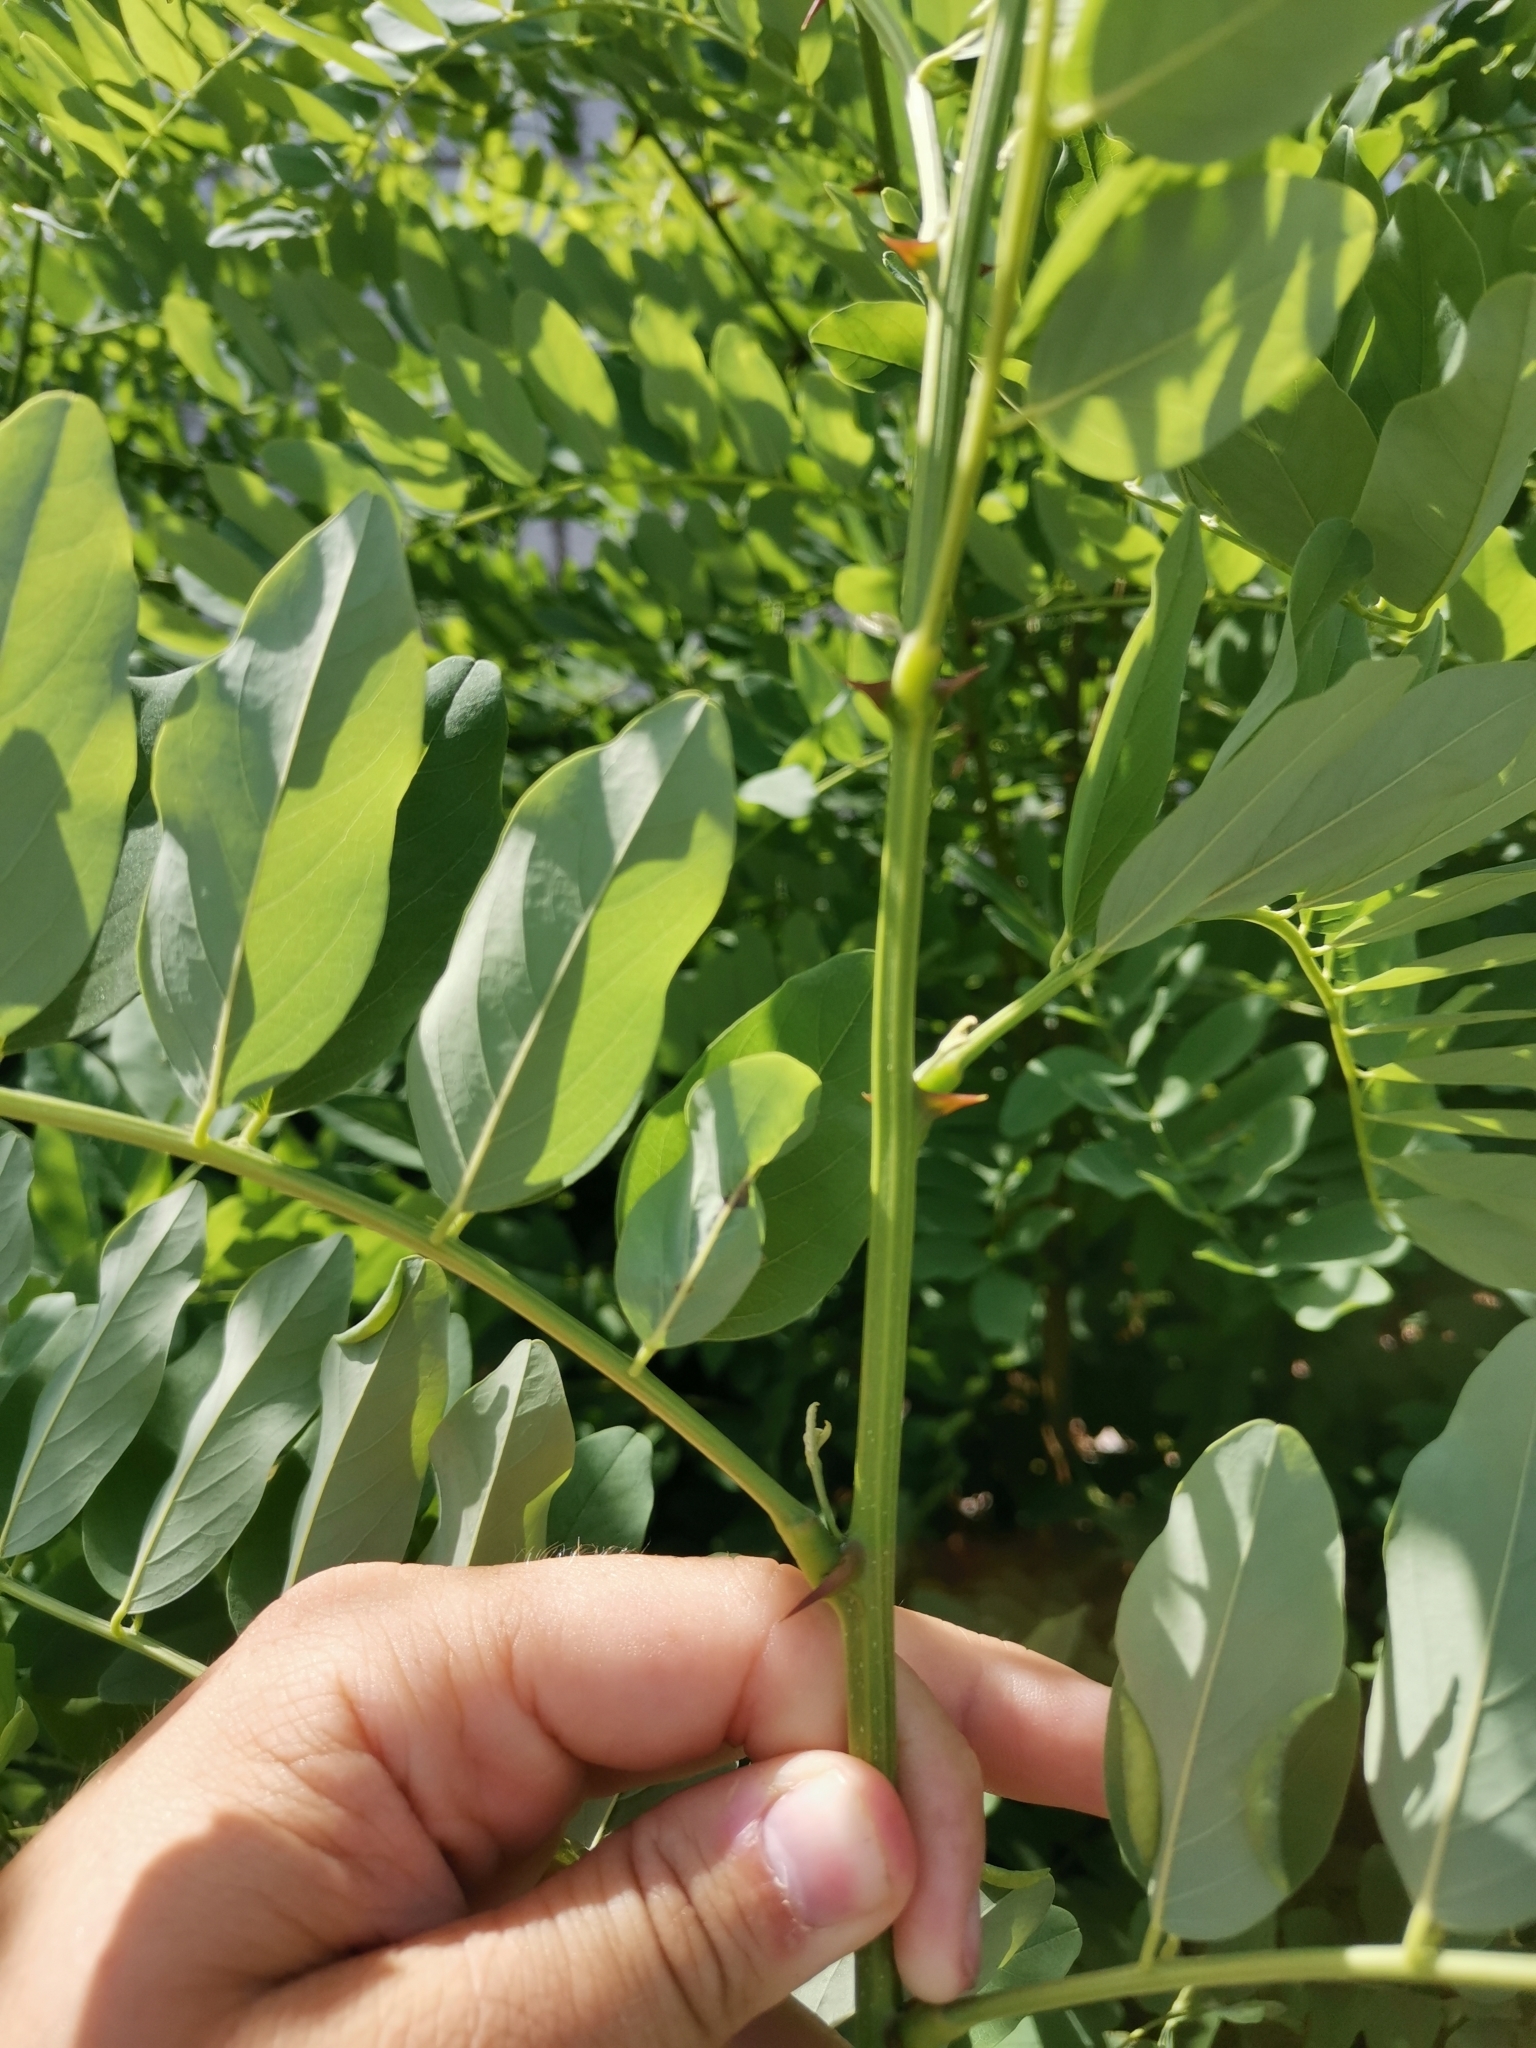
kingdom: Plantae
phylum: Tracheophyta
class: Magnoliopsida
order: Fabales
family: Fabaceae
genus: Robinia
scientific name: Robinia pseudoacacia
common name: Black locust
